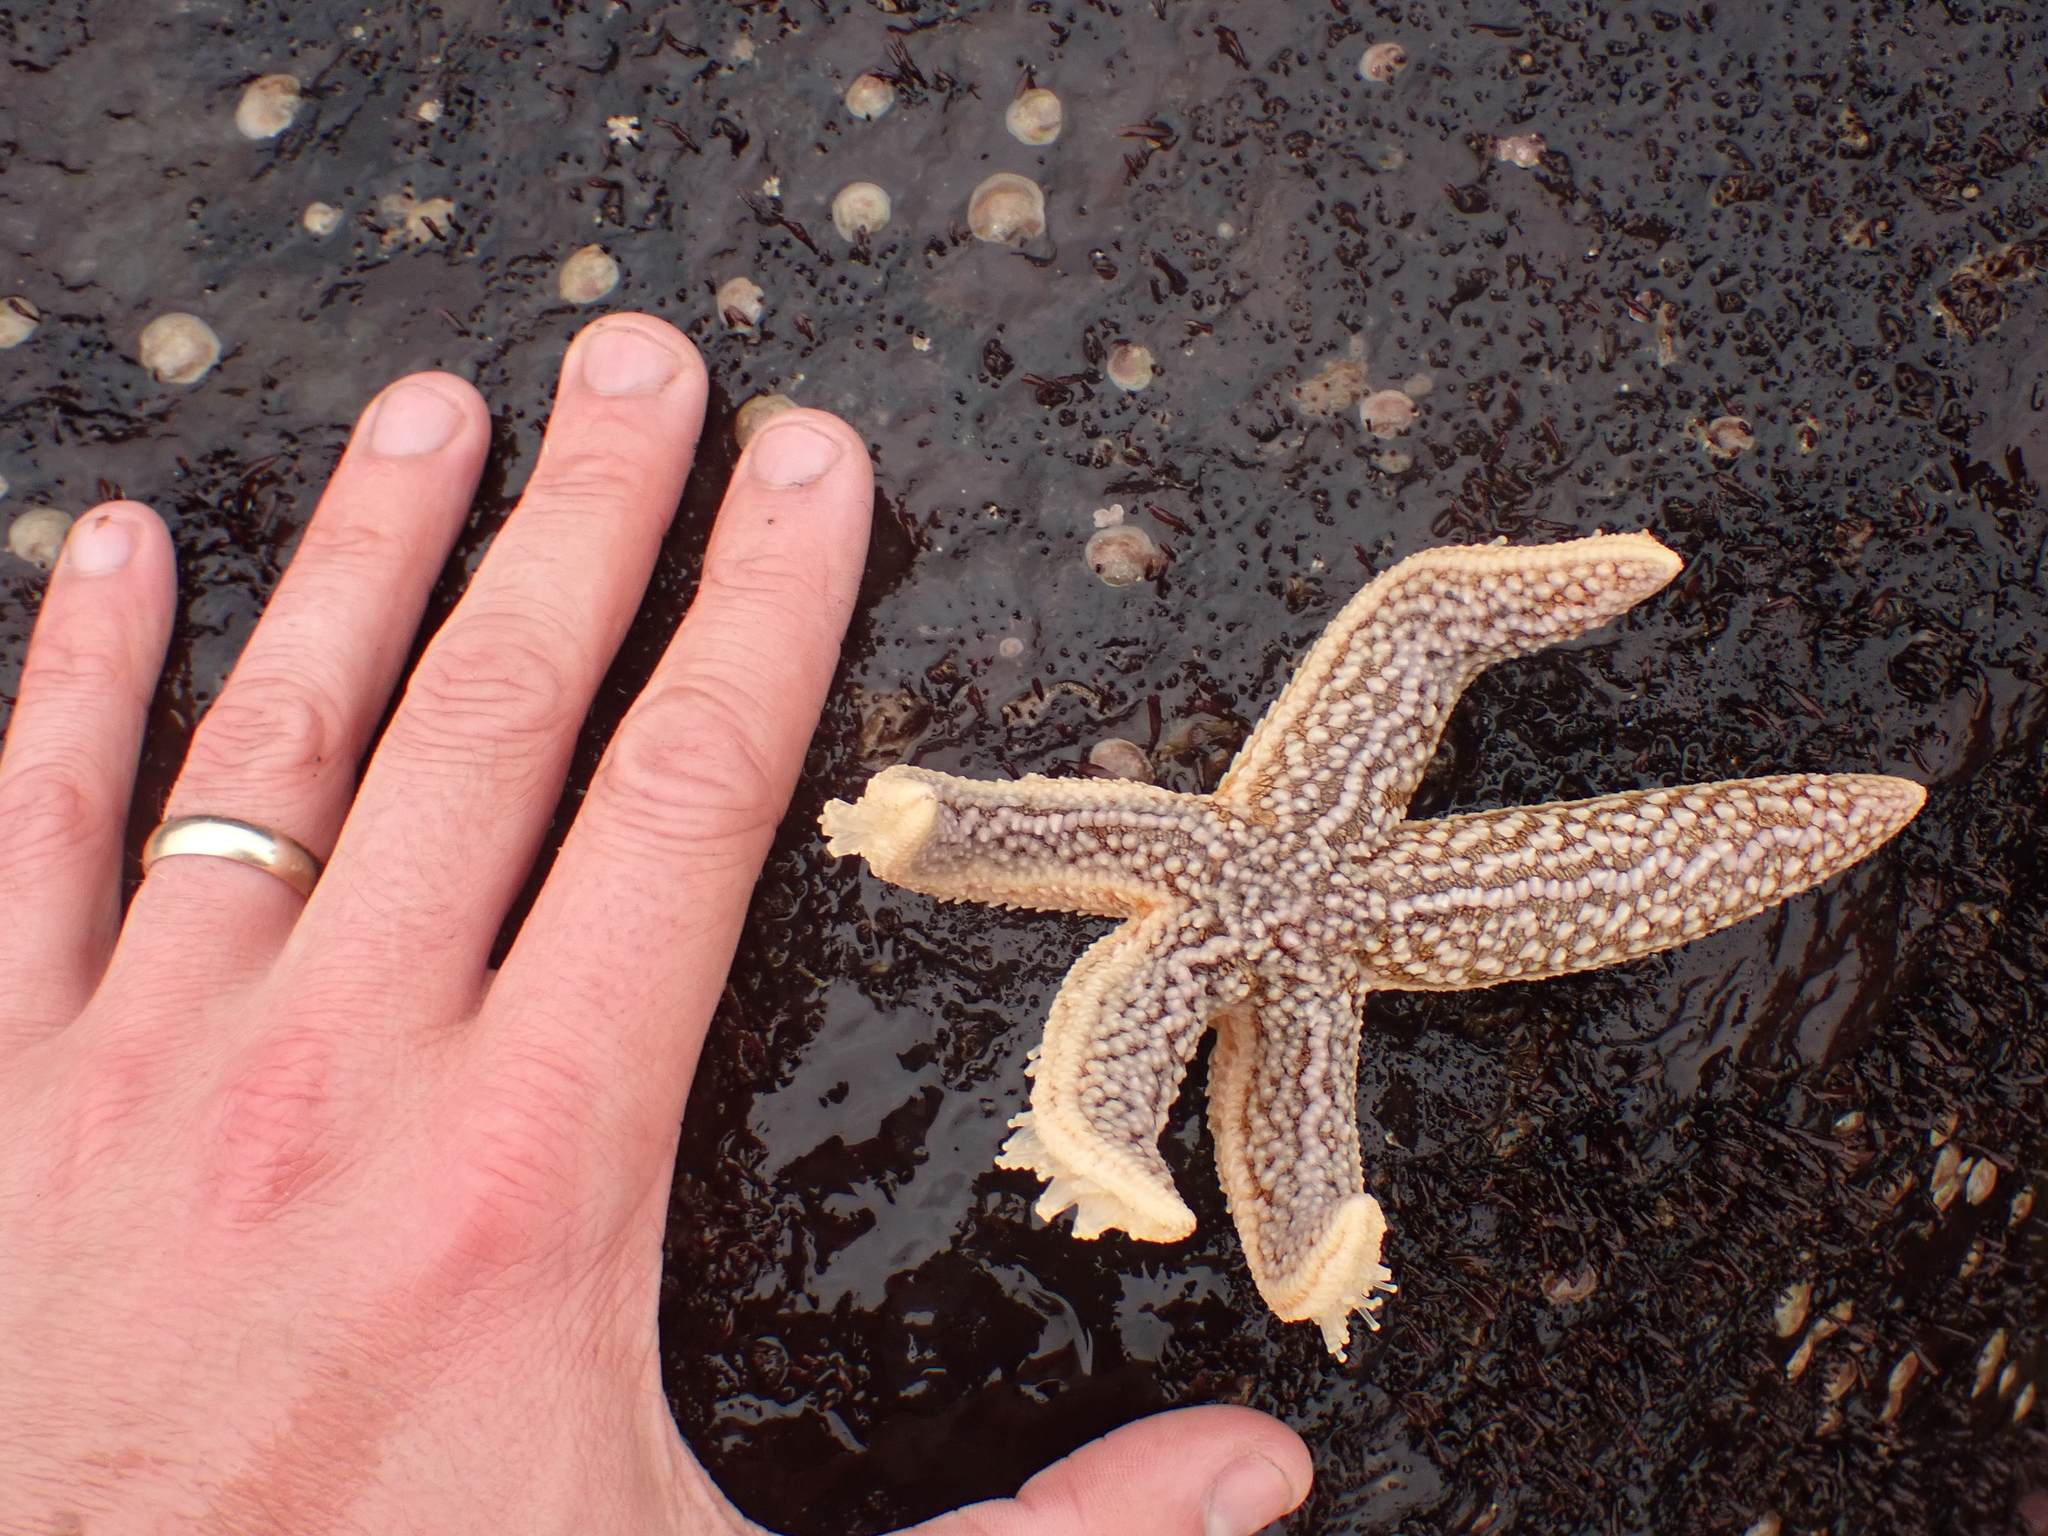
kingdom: Animalia
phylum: Echinodermata
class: Asteroidea
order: Forcipulatida
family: Asteriidae
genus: Asterias
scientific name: Asterias rubens
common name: Common starfish
